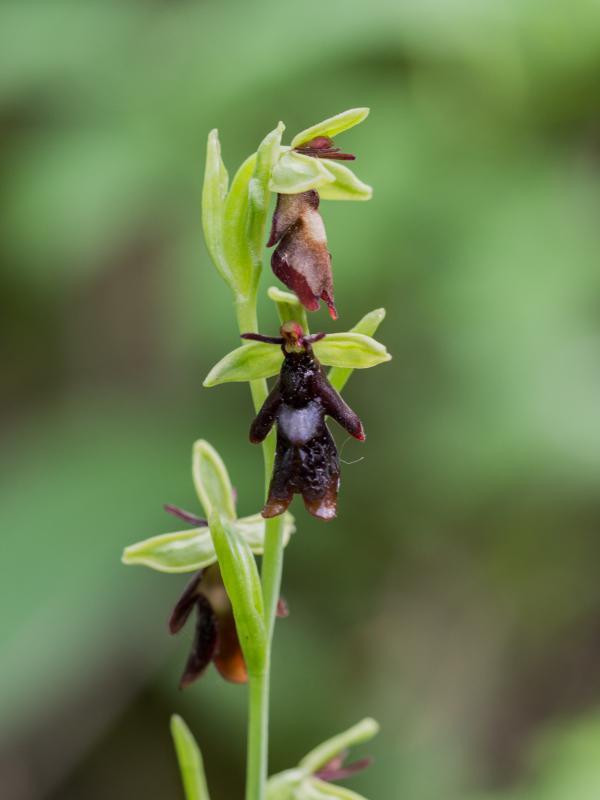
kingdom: Plantae
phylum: Tracheophyta
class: Liliopsida
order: Asparagales
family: Orchidaceae
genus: Ophrys
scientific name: Ophrys insectifera
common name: Fly orchid
